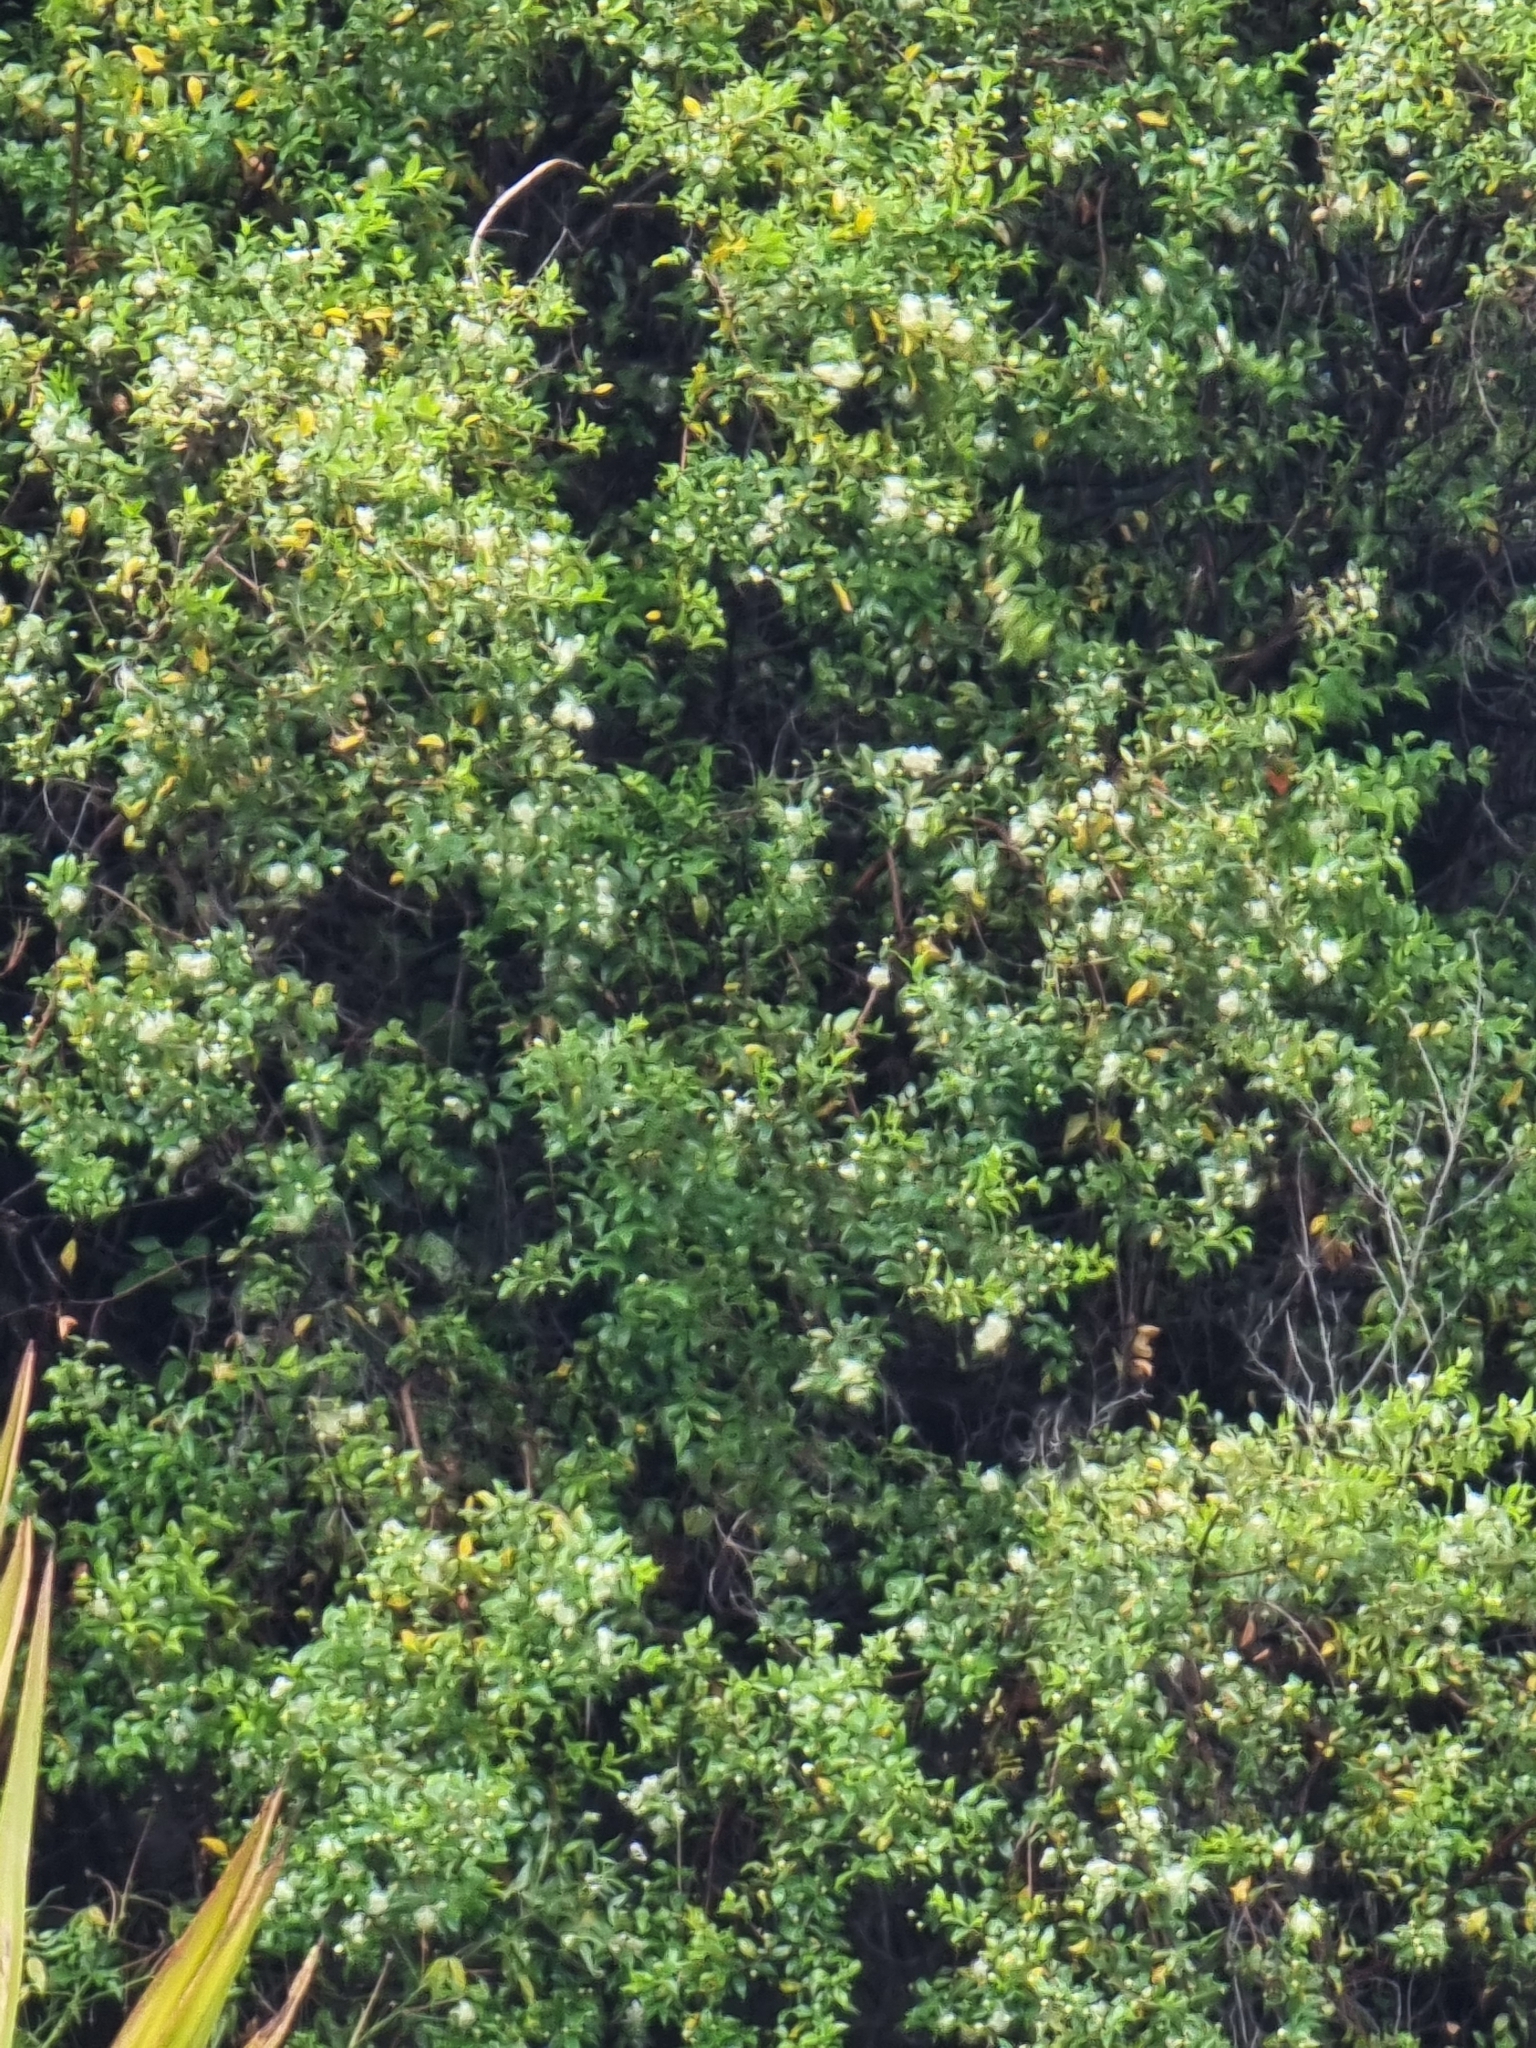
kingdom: Plantae
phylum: Tracheophyta
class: Magnoliopsida
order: Myrtales
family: Myrtaceae
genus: Myrtus
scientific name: Myrtus communis
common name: Myrtle
